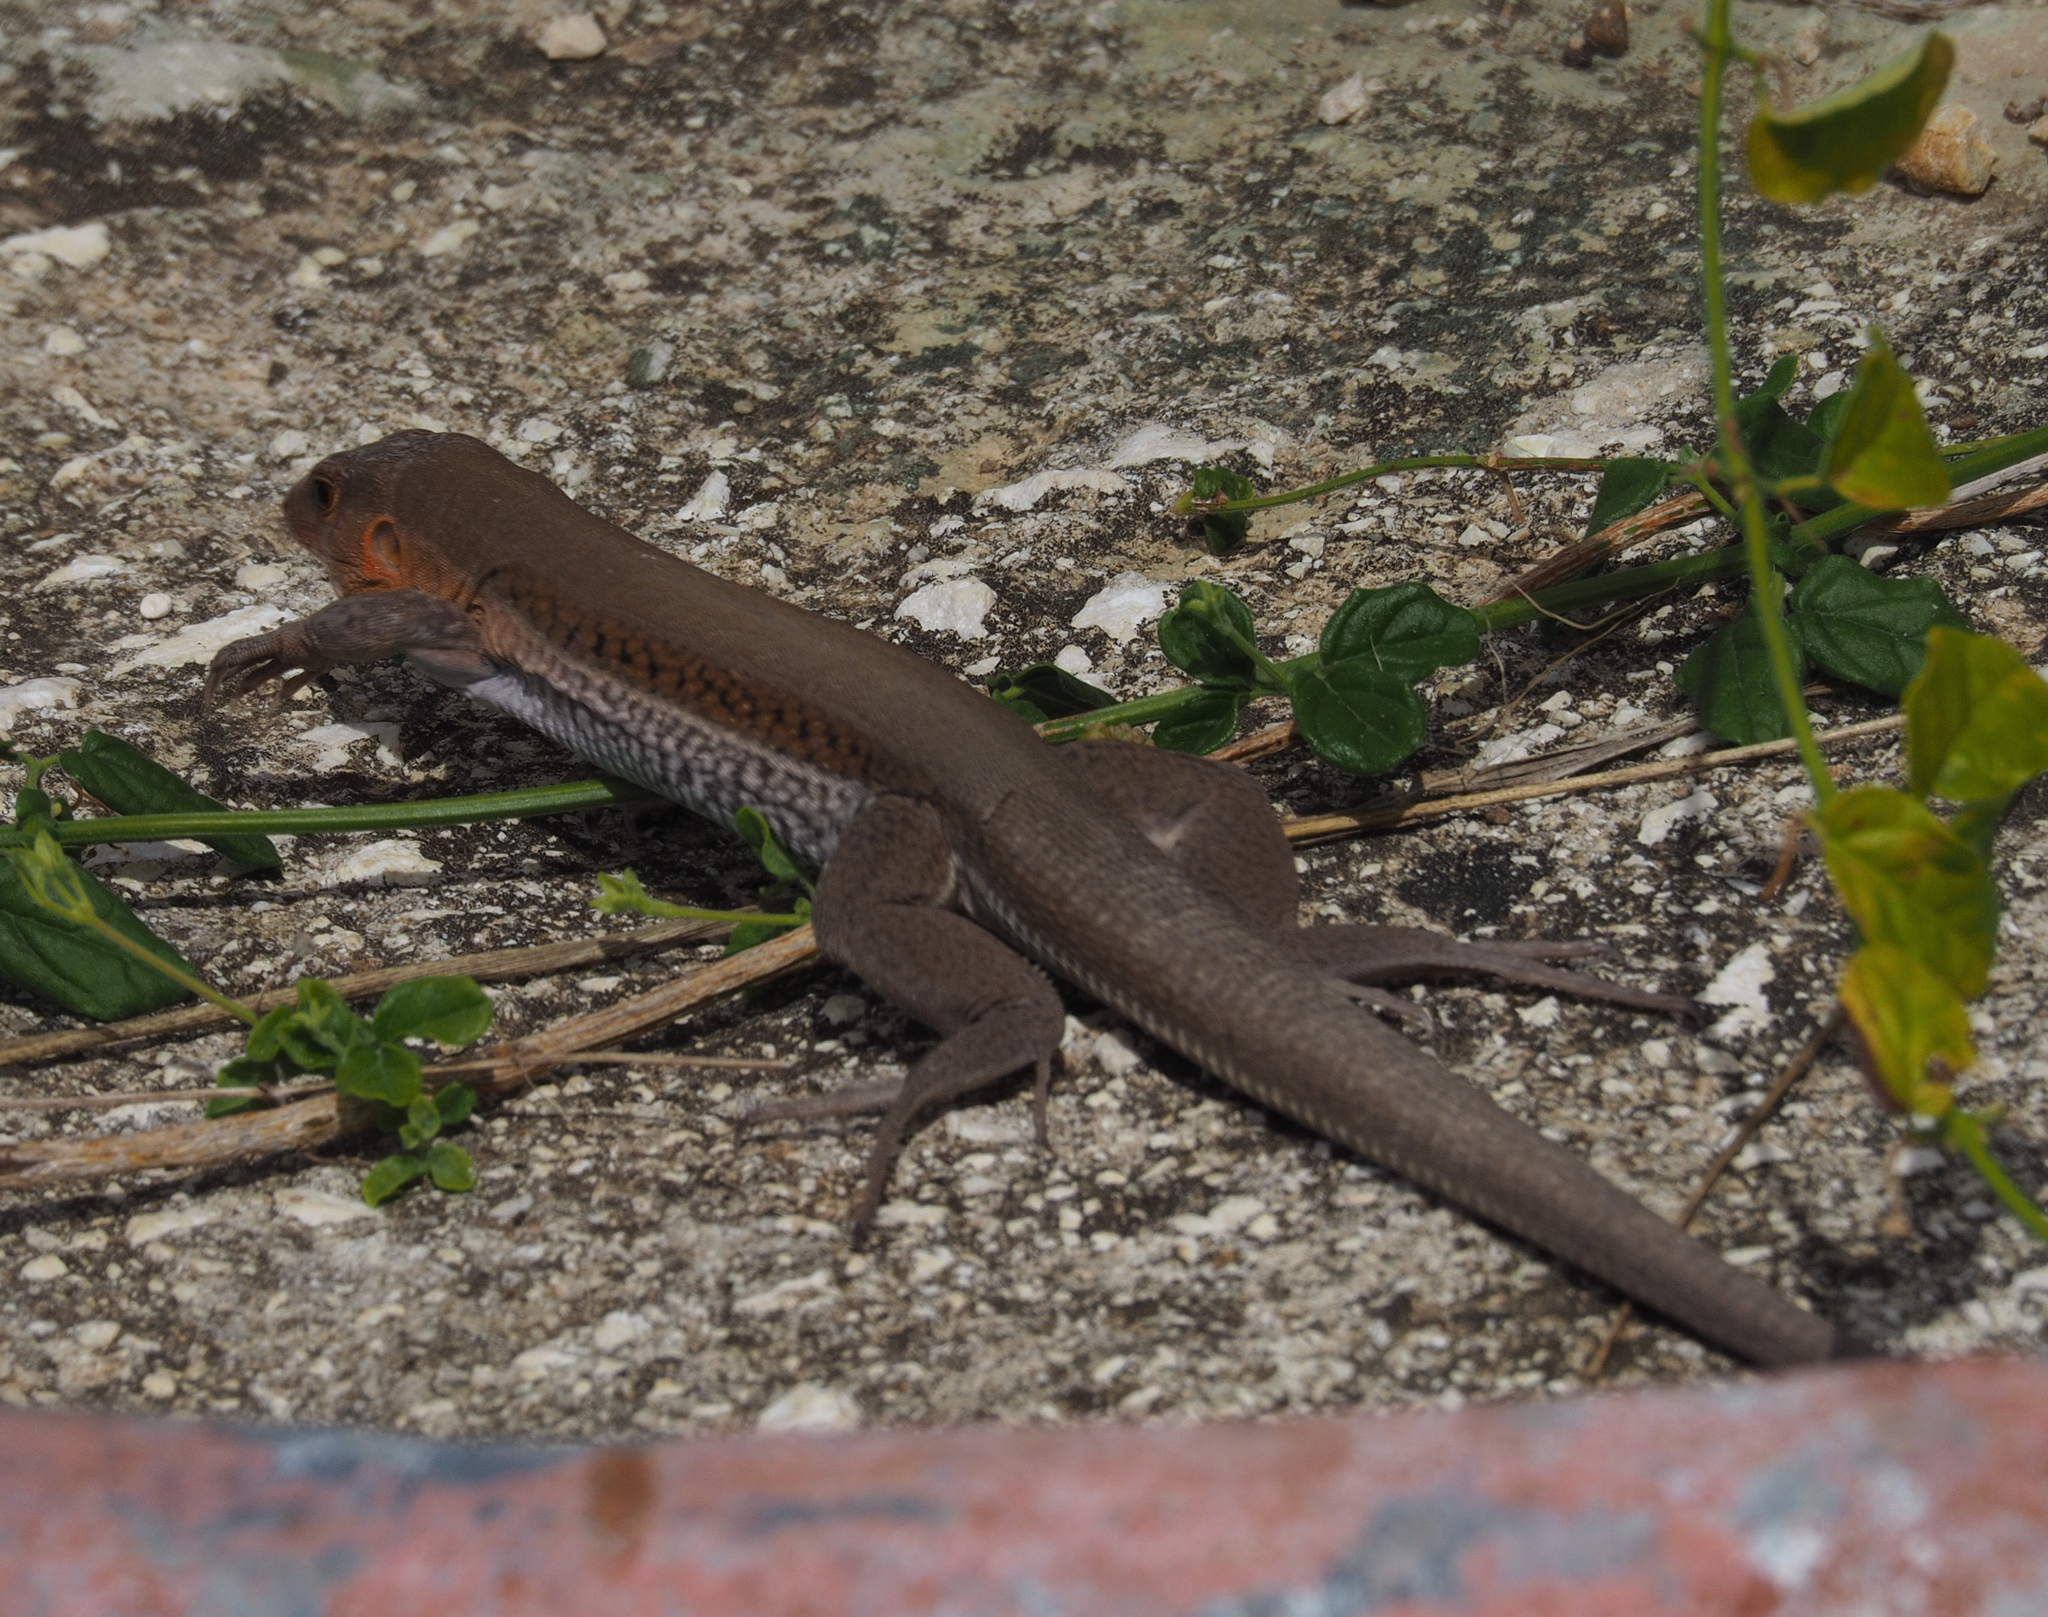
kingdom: Animalia
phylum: Chordata
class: Squamata
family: Teiidae
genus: Pholidoscelis
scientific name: Pholidoscelis auberi
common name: Auber's ameiva
